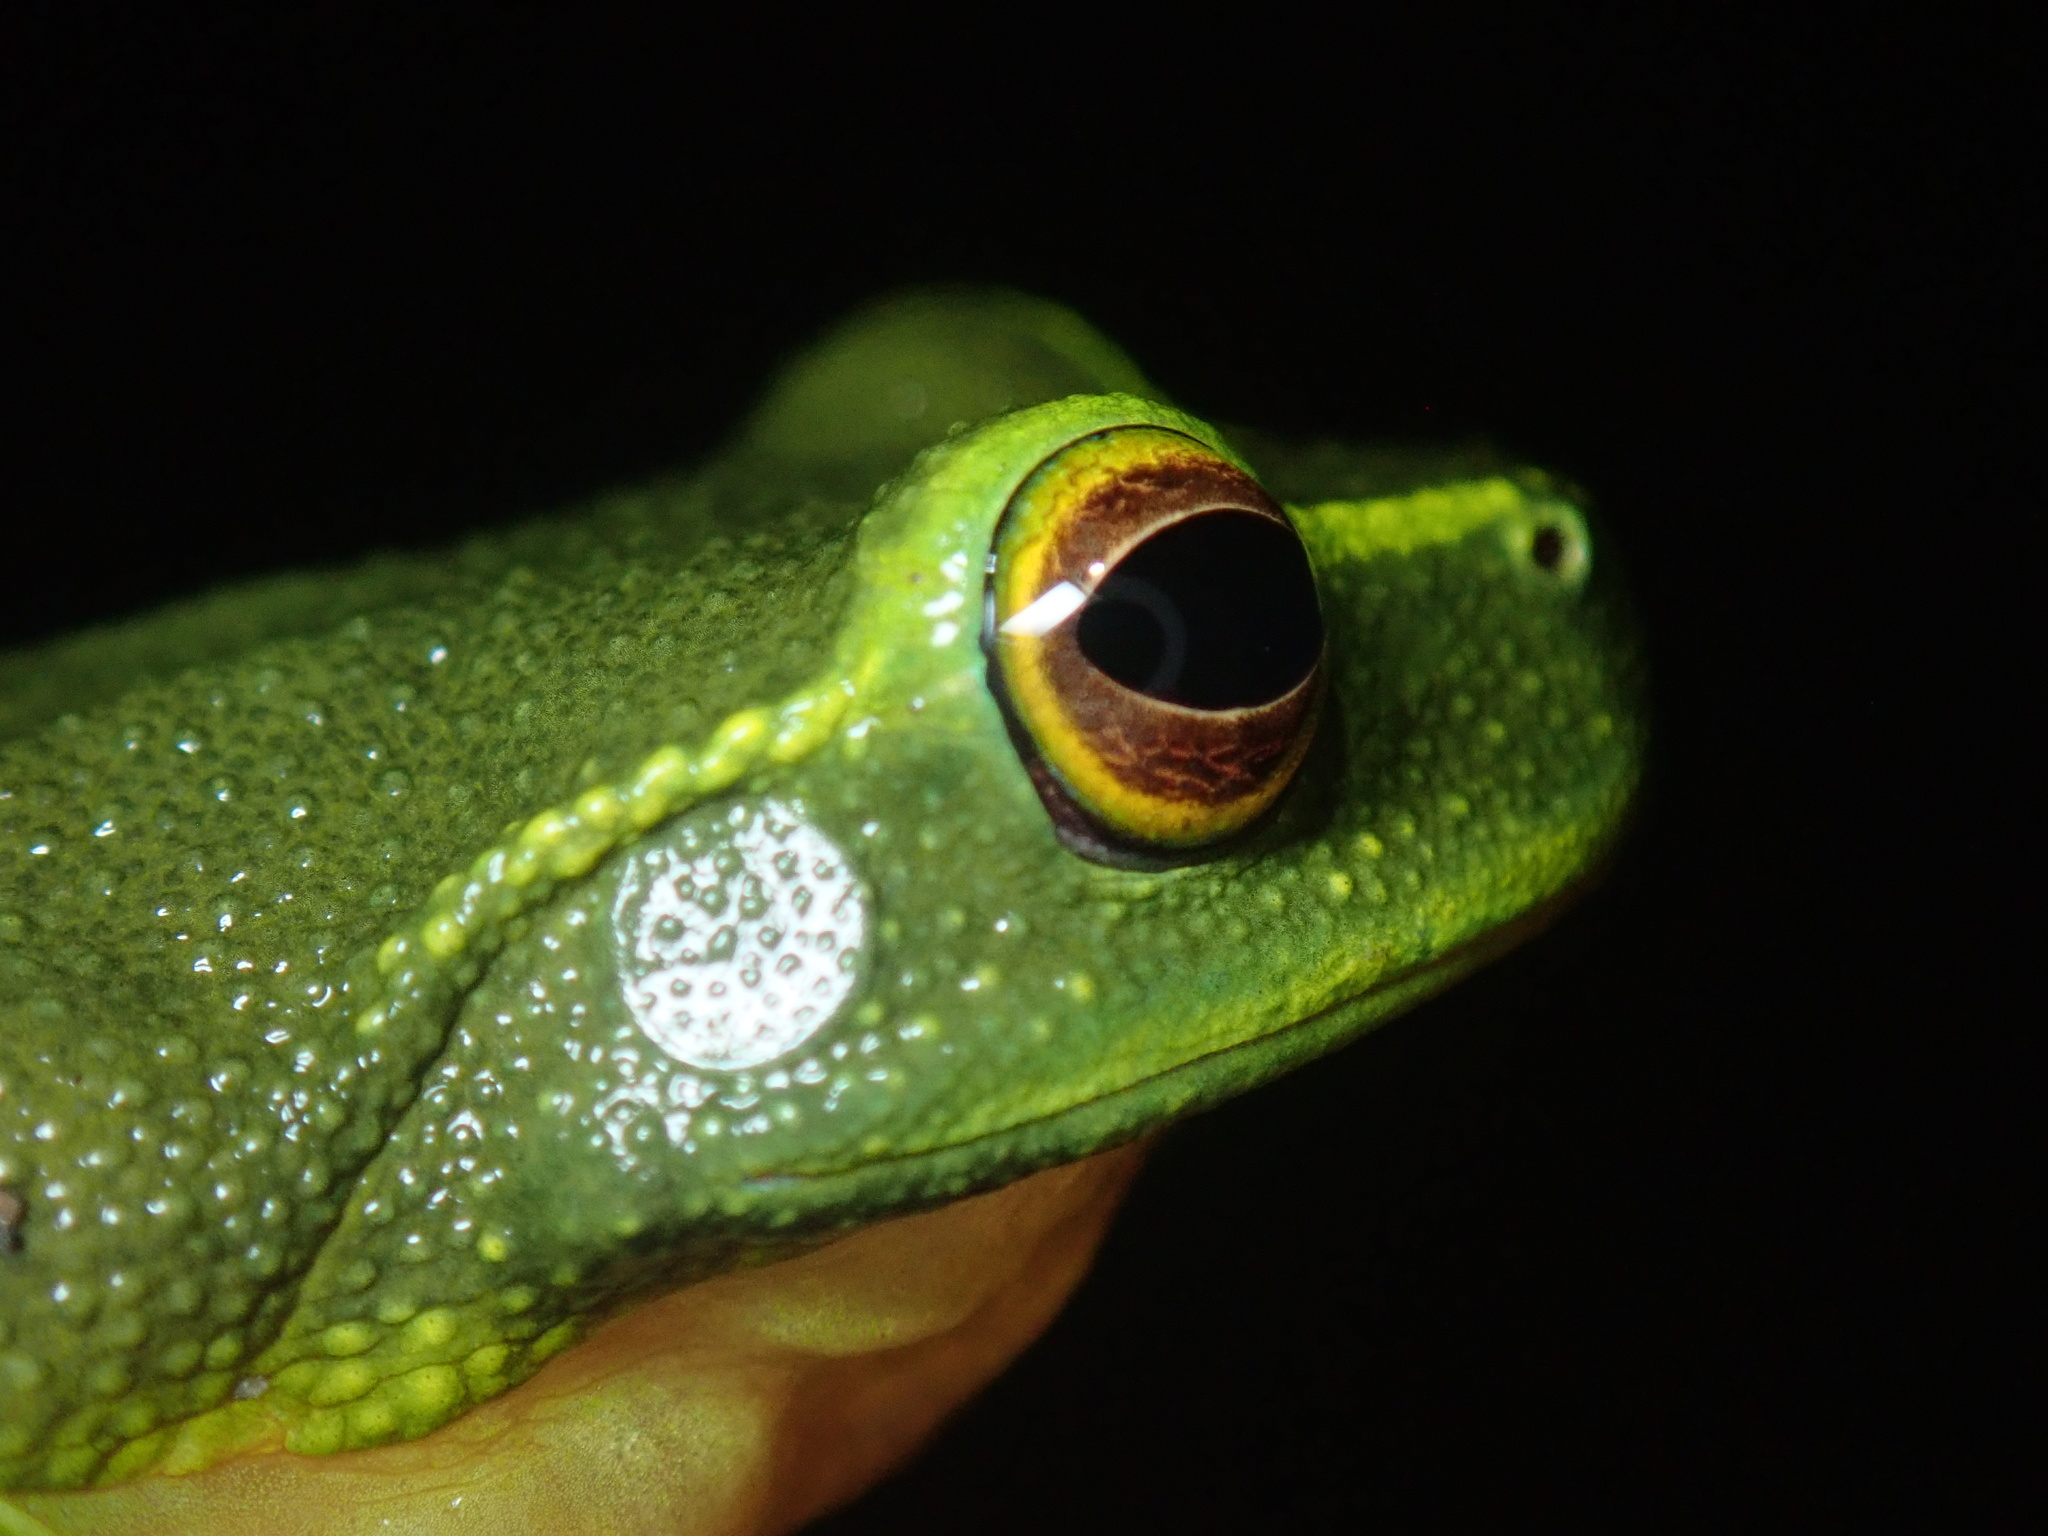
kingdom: Animalia
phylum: Chordata
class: Amphibia
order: Anura
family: Pelodryadidae
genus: Ranoidea
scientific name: Ranoidea gracilenta
